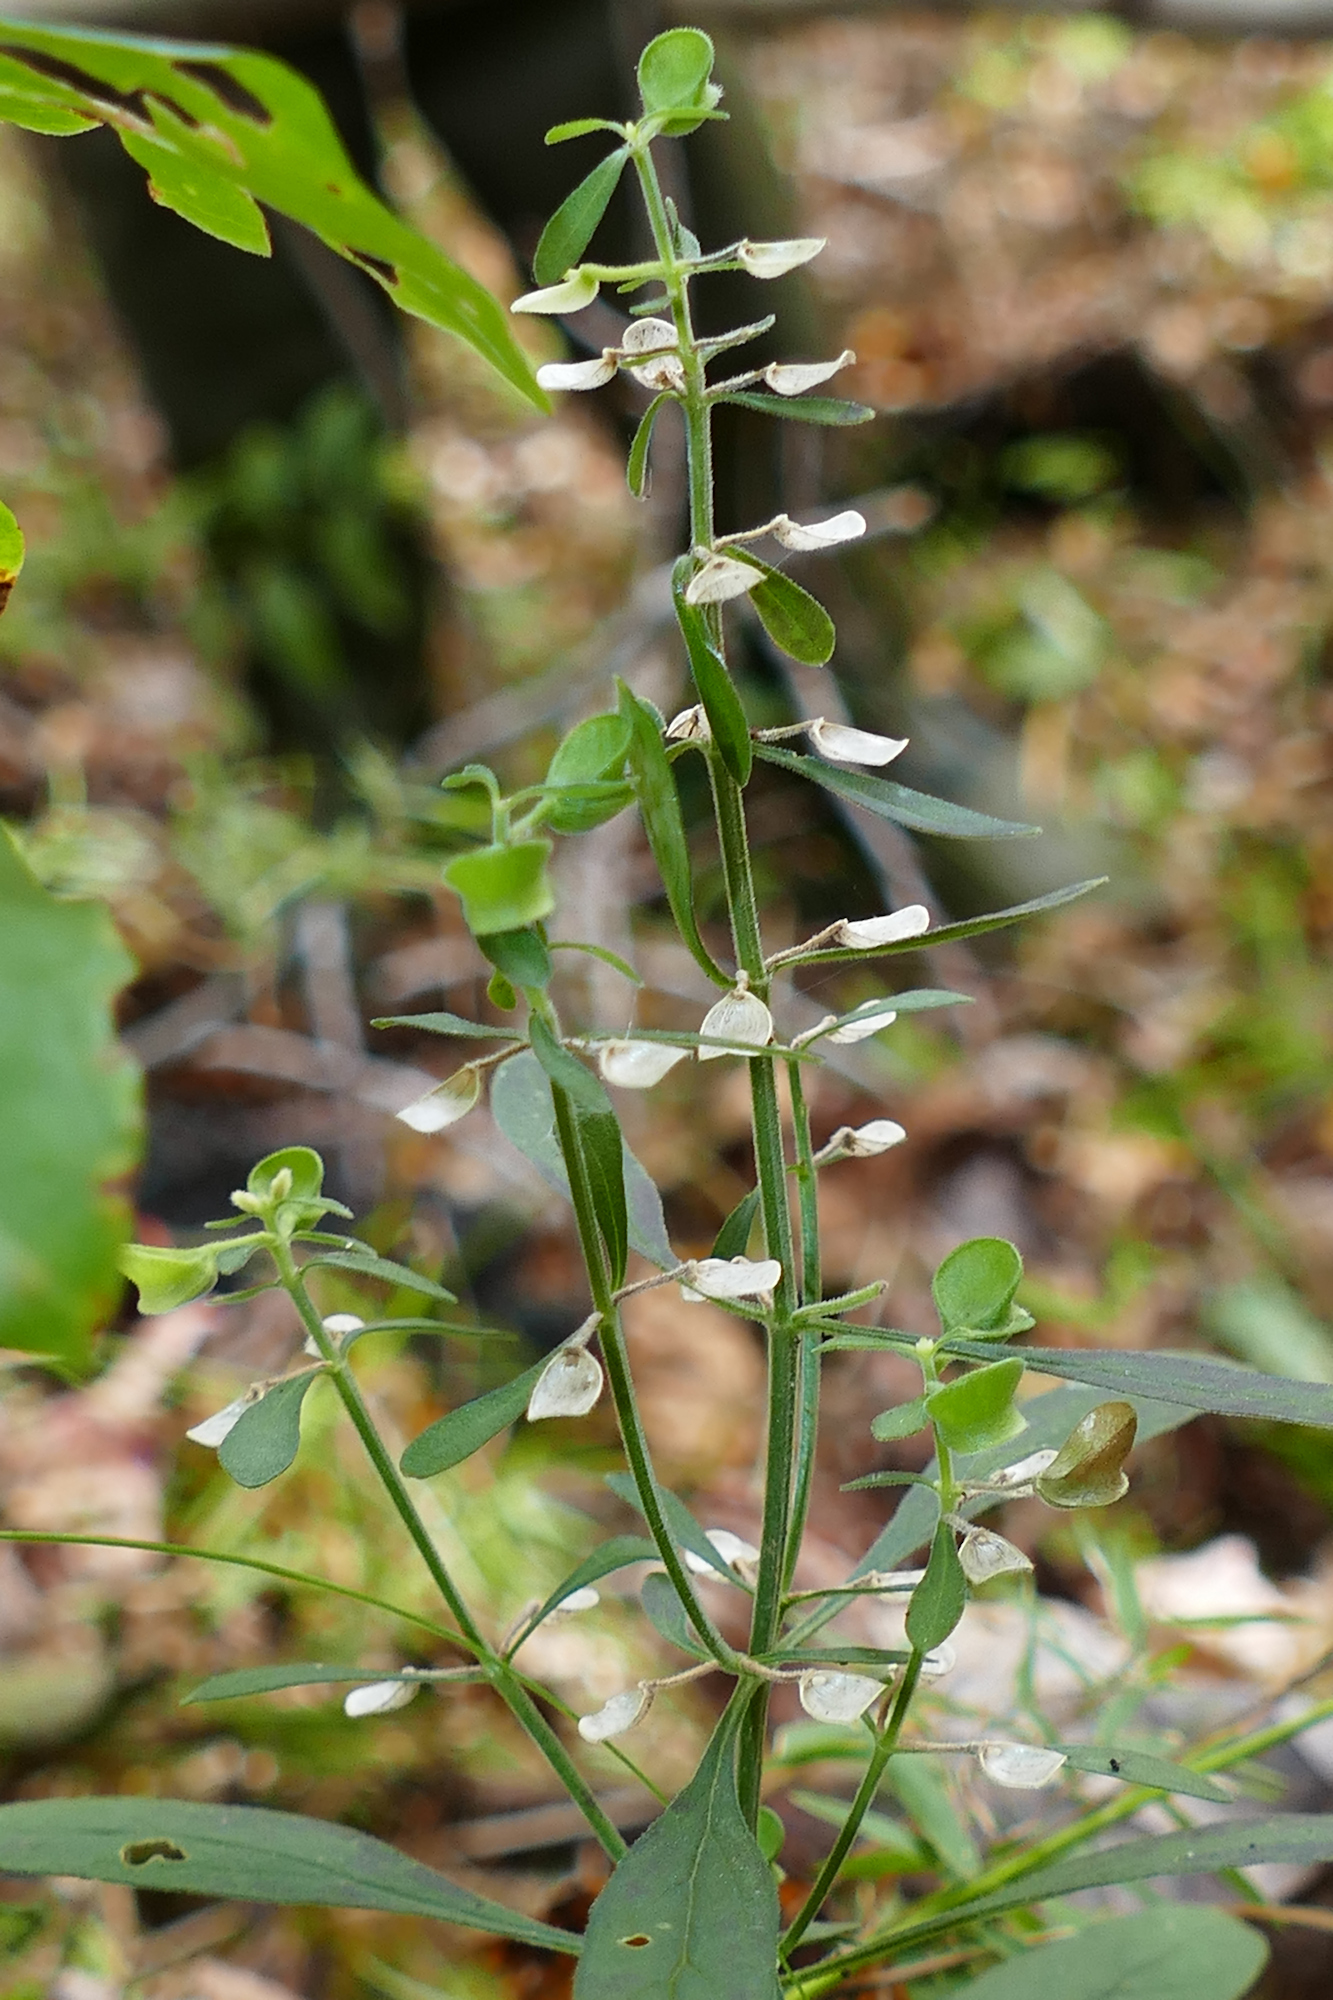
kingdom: Plantae
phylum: Tracheophyta
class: Magnoliopsida
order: Lamiales
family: Lamiaceae
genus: Scutellaria
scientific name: Scutellaria integrifolia
